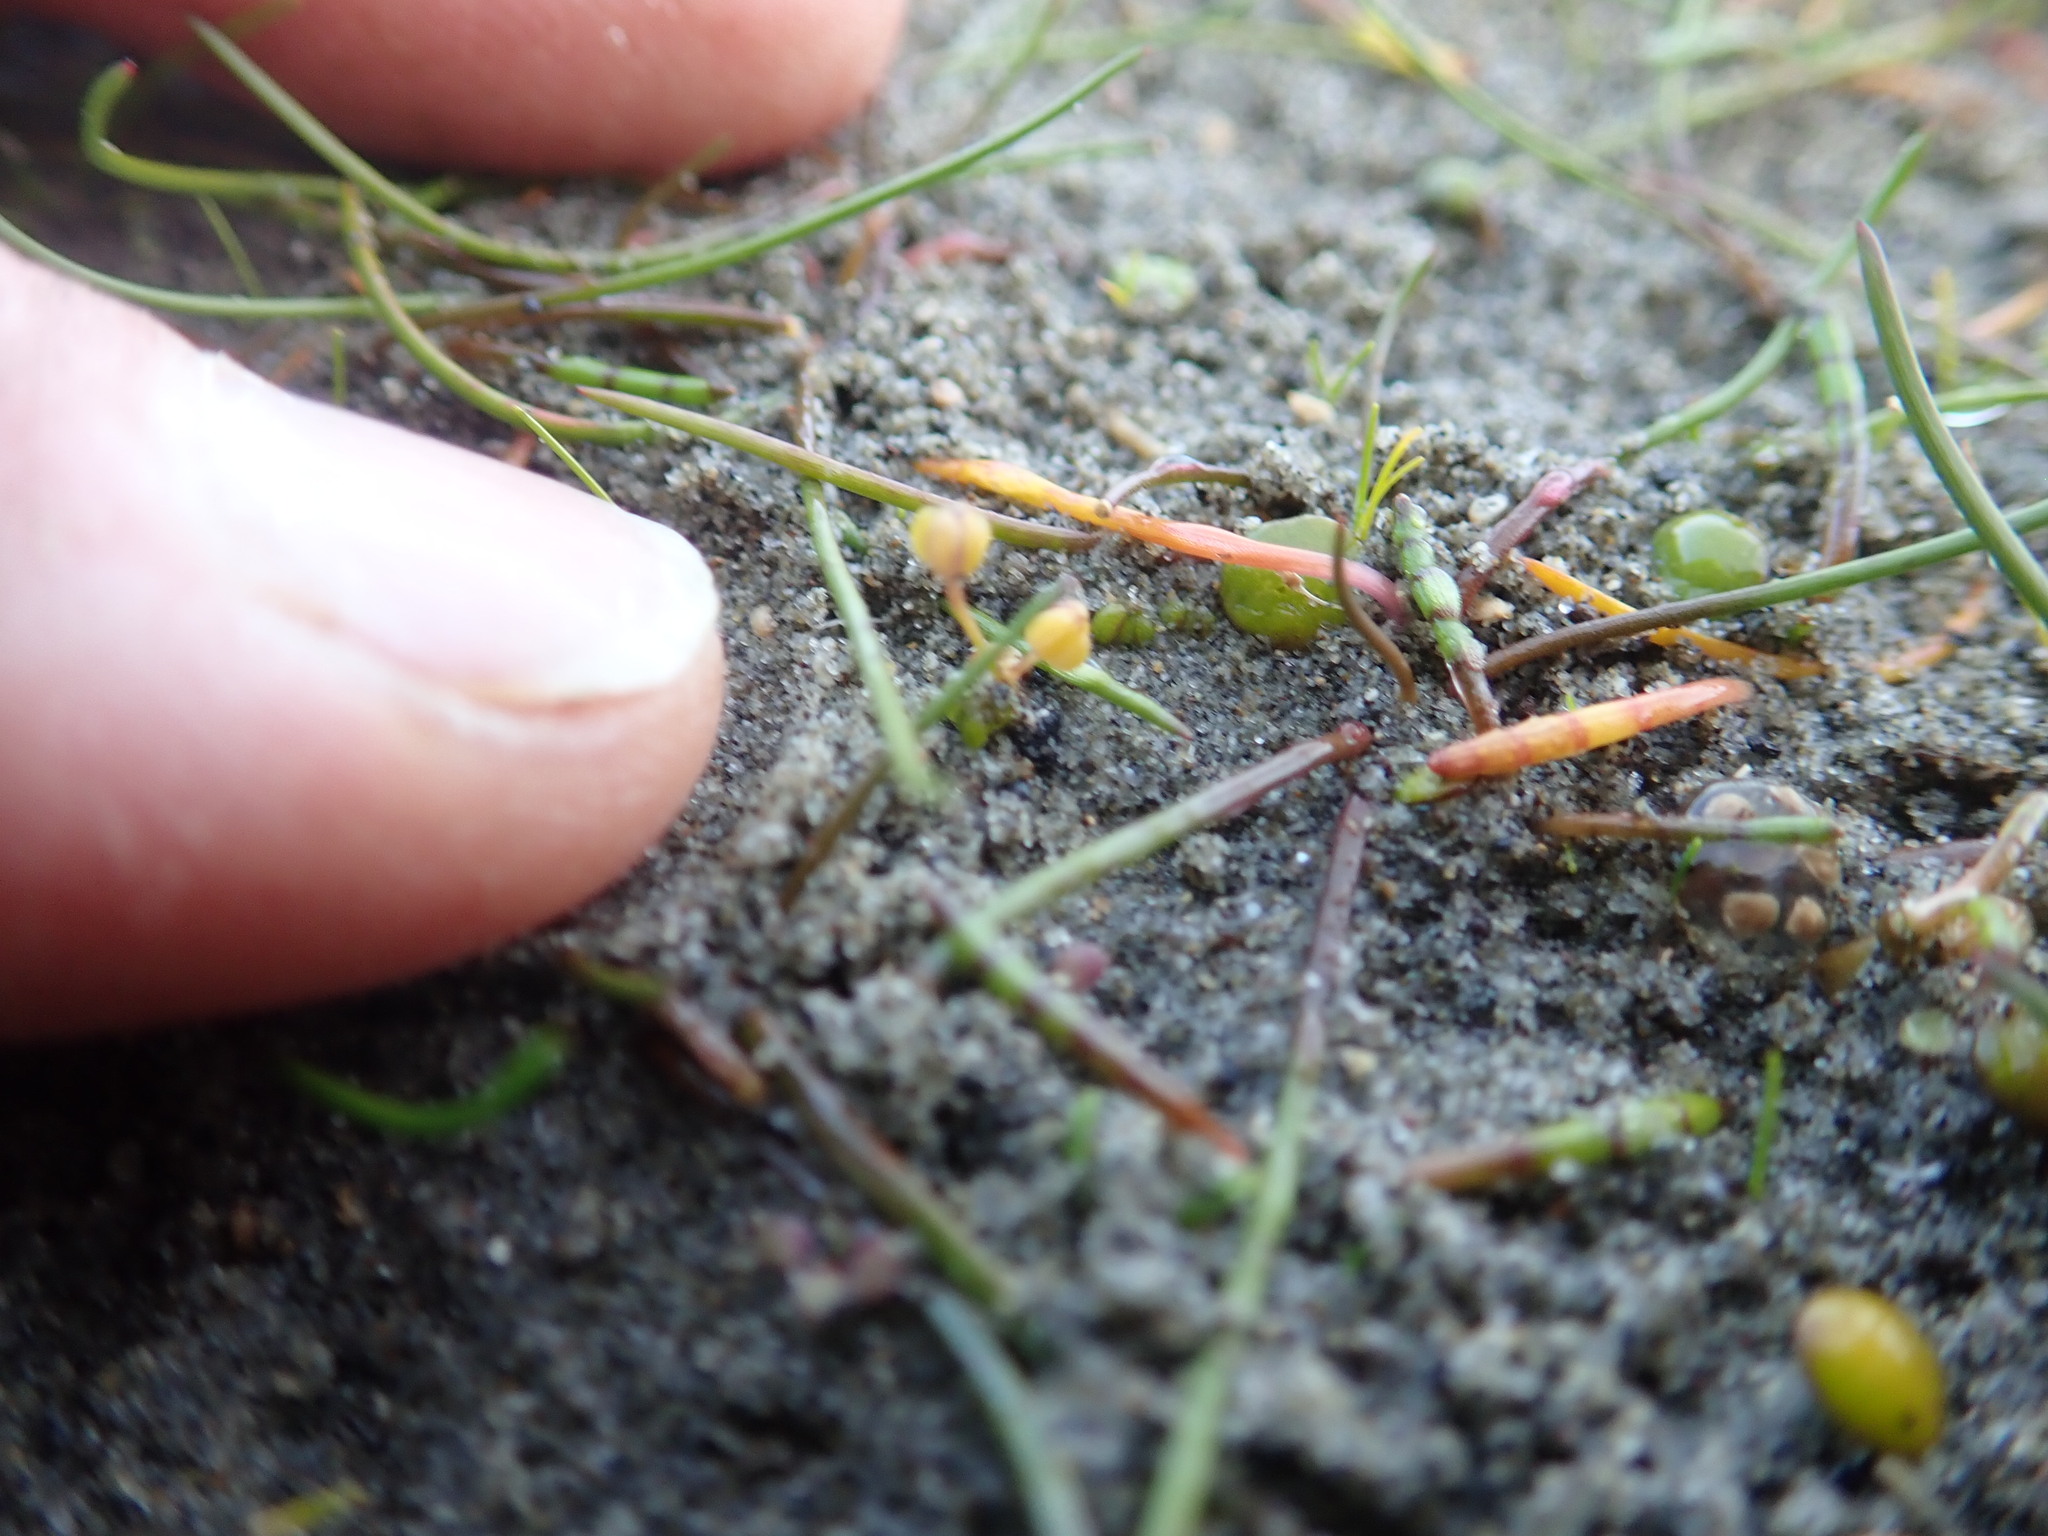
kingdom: Plantae
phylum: Tracheophyta
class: Liliopsida
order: Alismatales
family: Juncaginaceae
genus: Triglochin
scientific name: Triglochin striata
